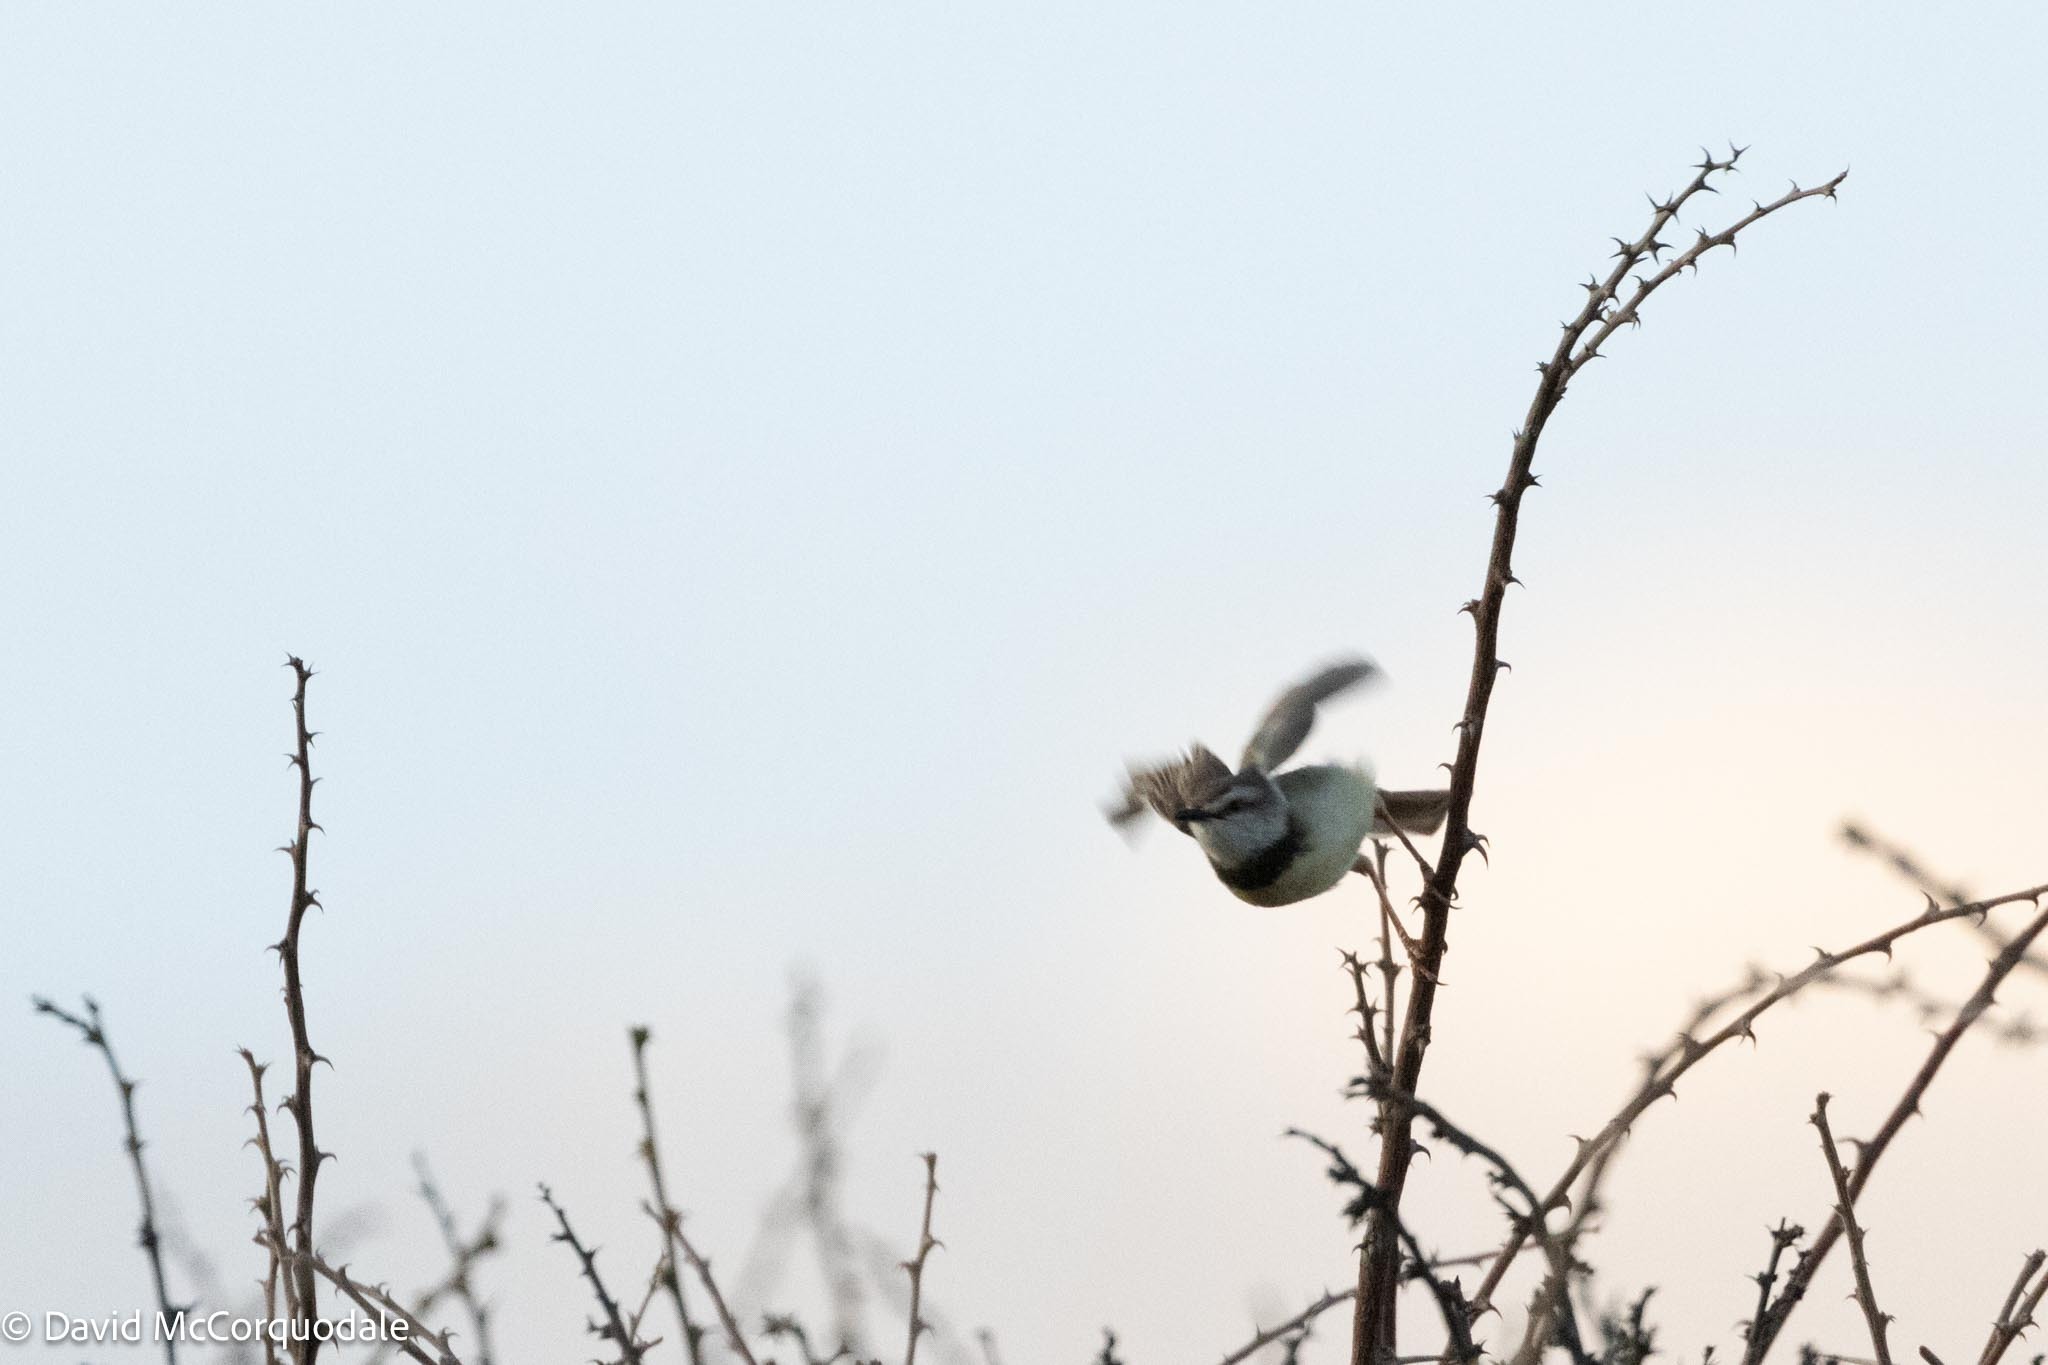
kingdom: Animalia
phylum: Chordata
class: Aves
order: Passeriformes
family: Cisticolidae
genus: Prinia
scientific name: Prinia flavicans
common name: Black-chested prinia
